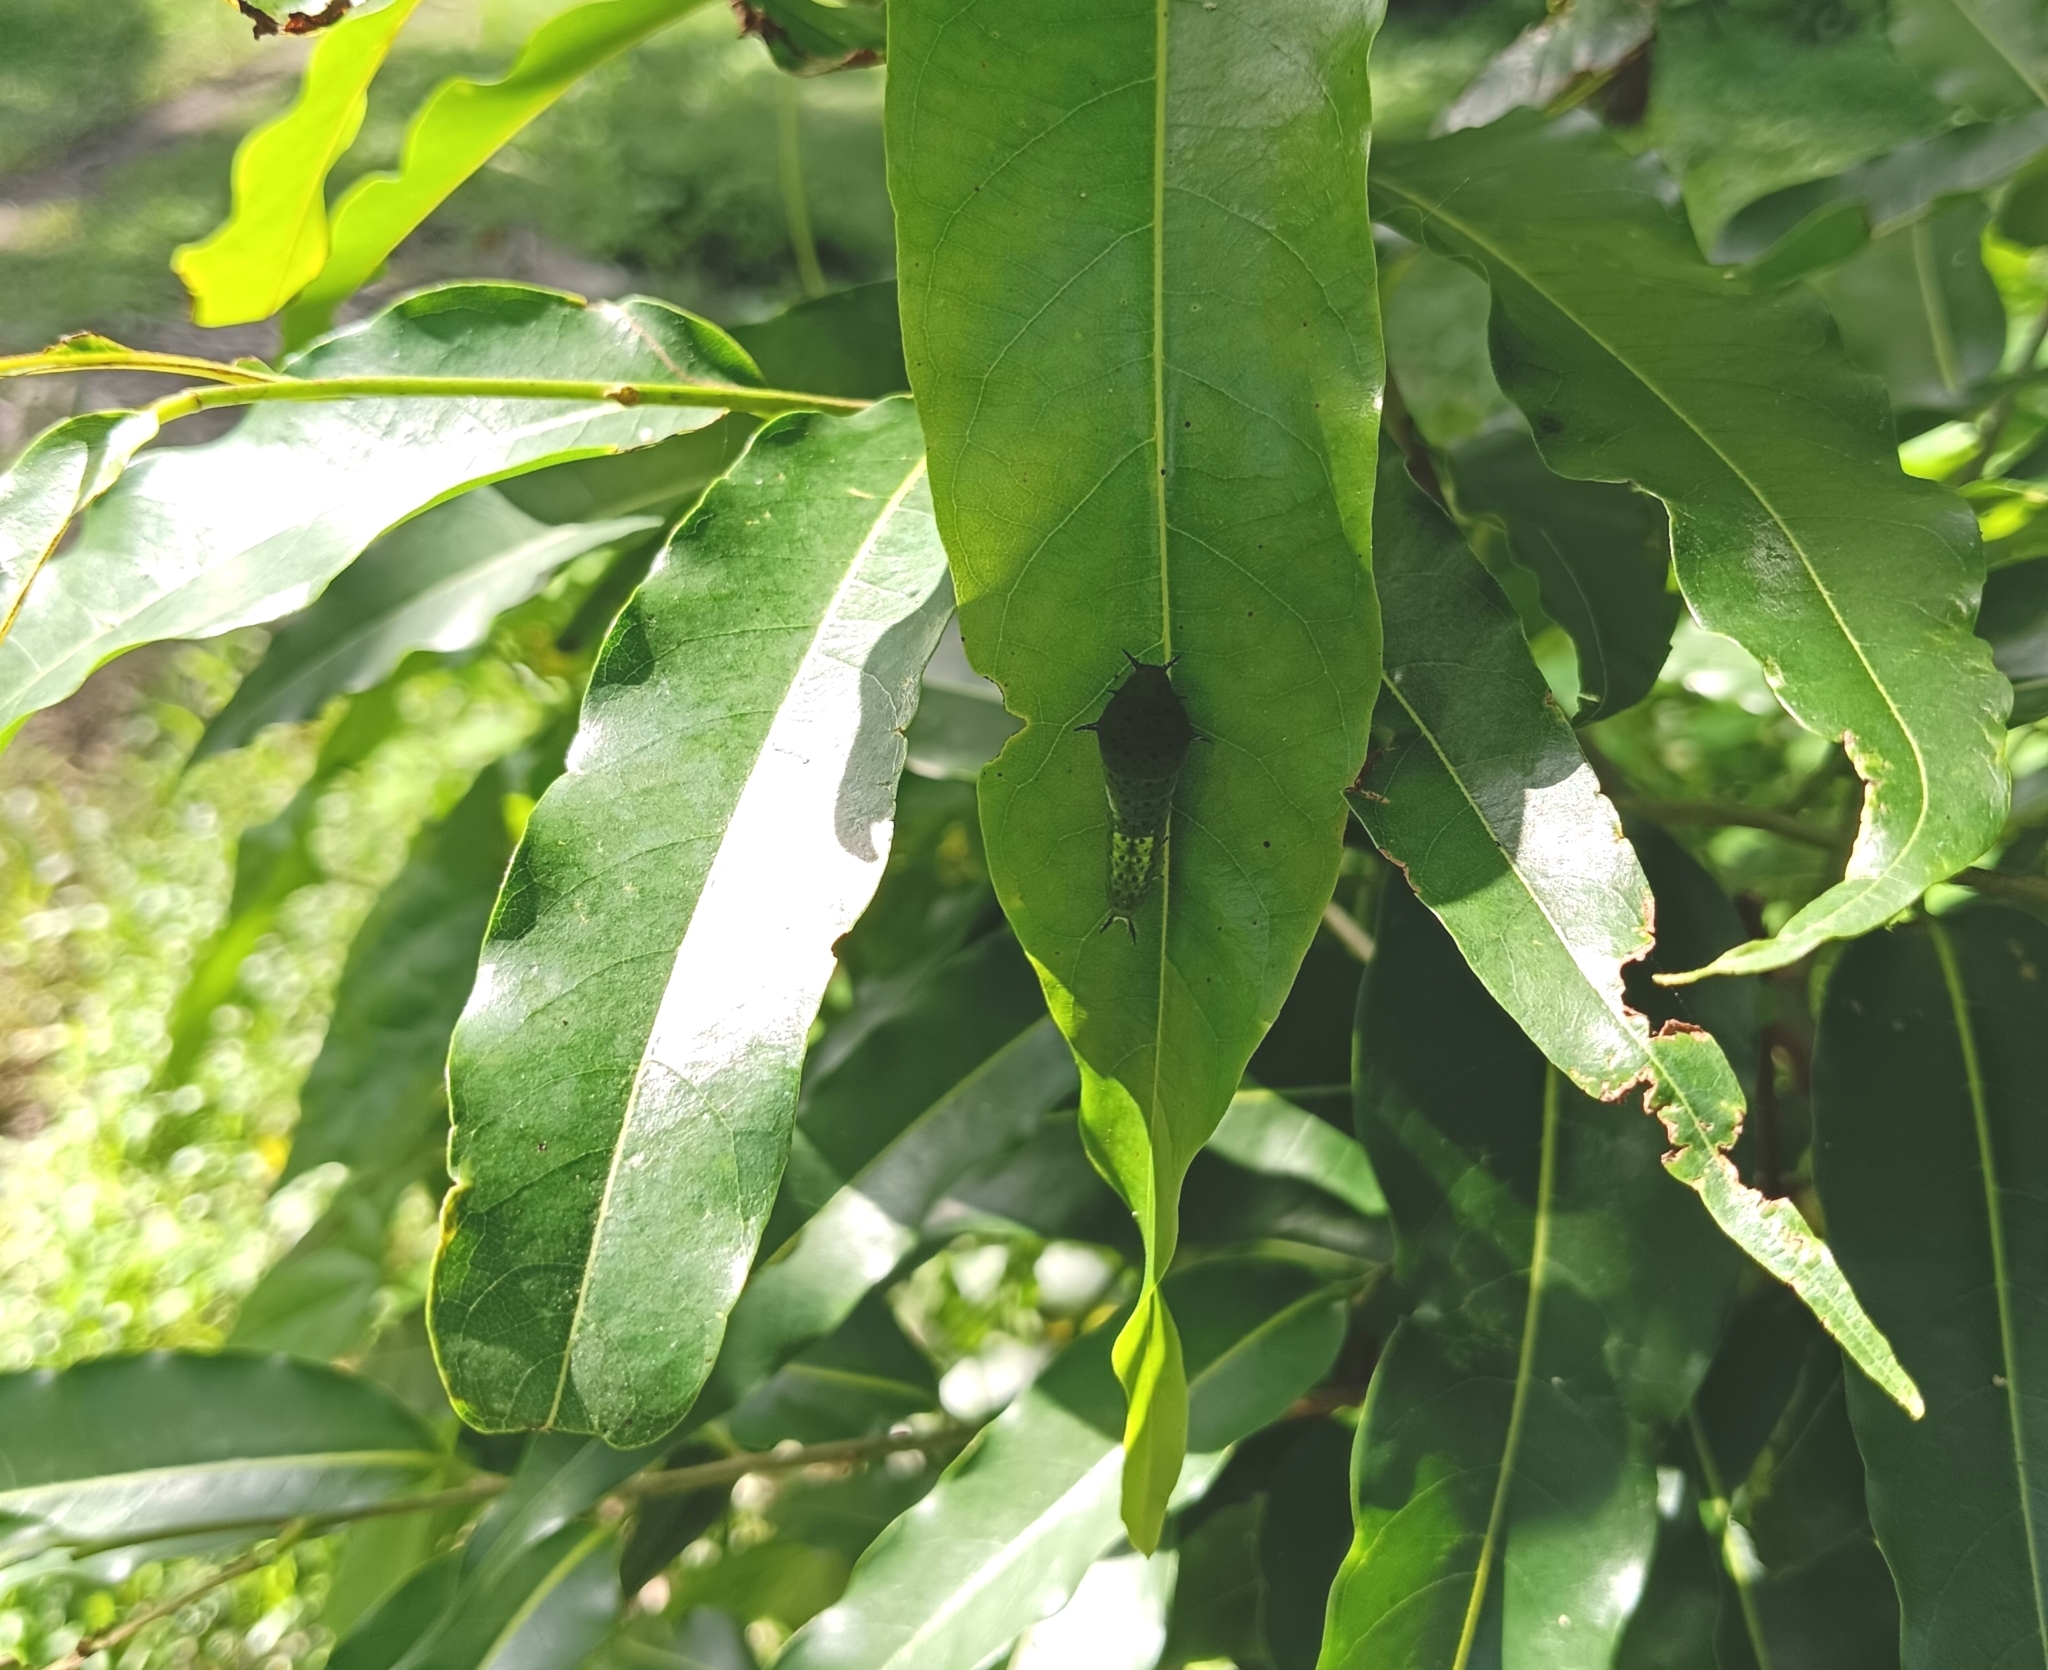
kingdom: Animalia
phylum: Arthropoda
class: Insecta
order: Lepidoptera
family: Papilionidae
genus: Graphium
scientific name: Graphium agamemnon
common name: Tailed jay
